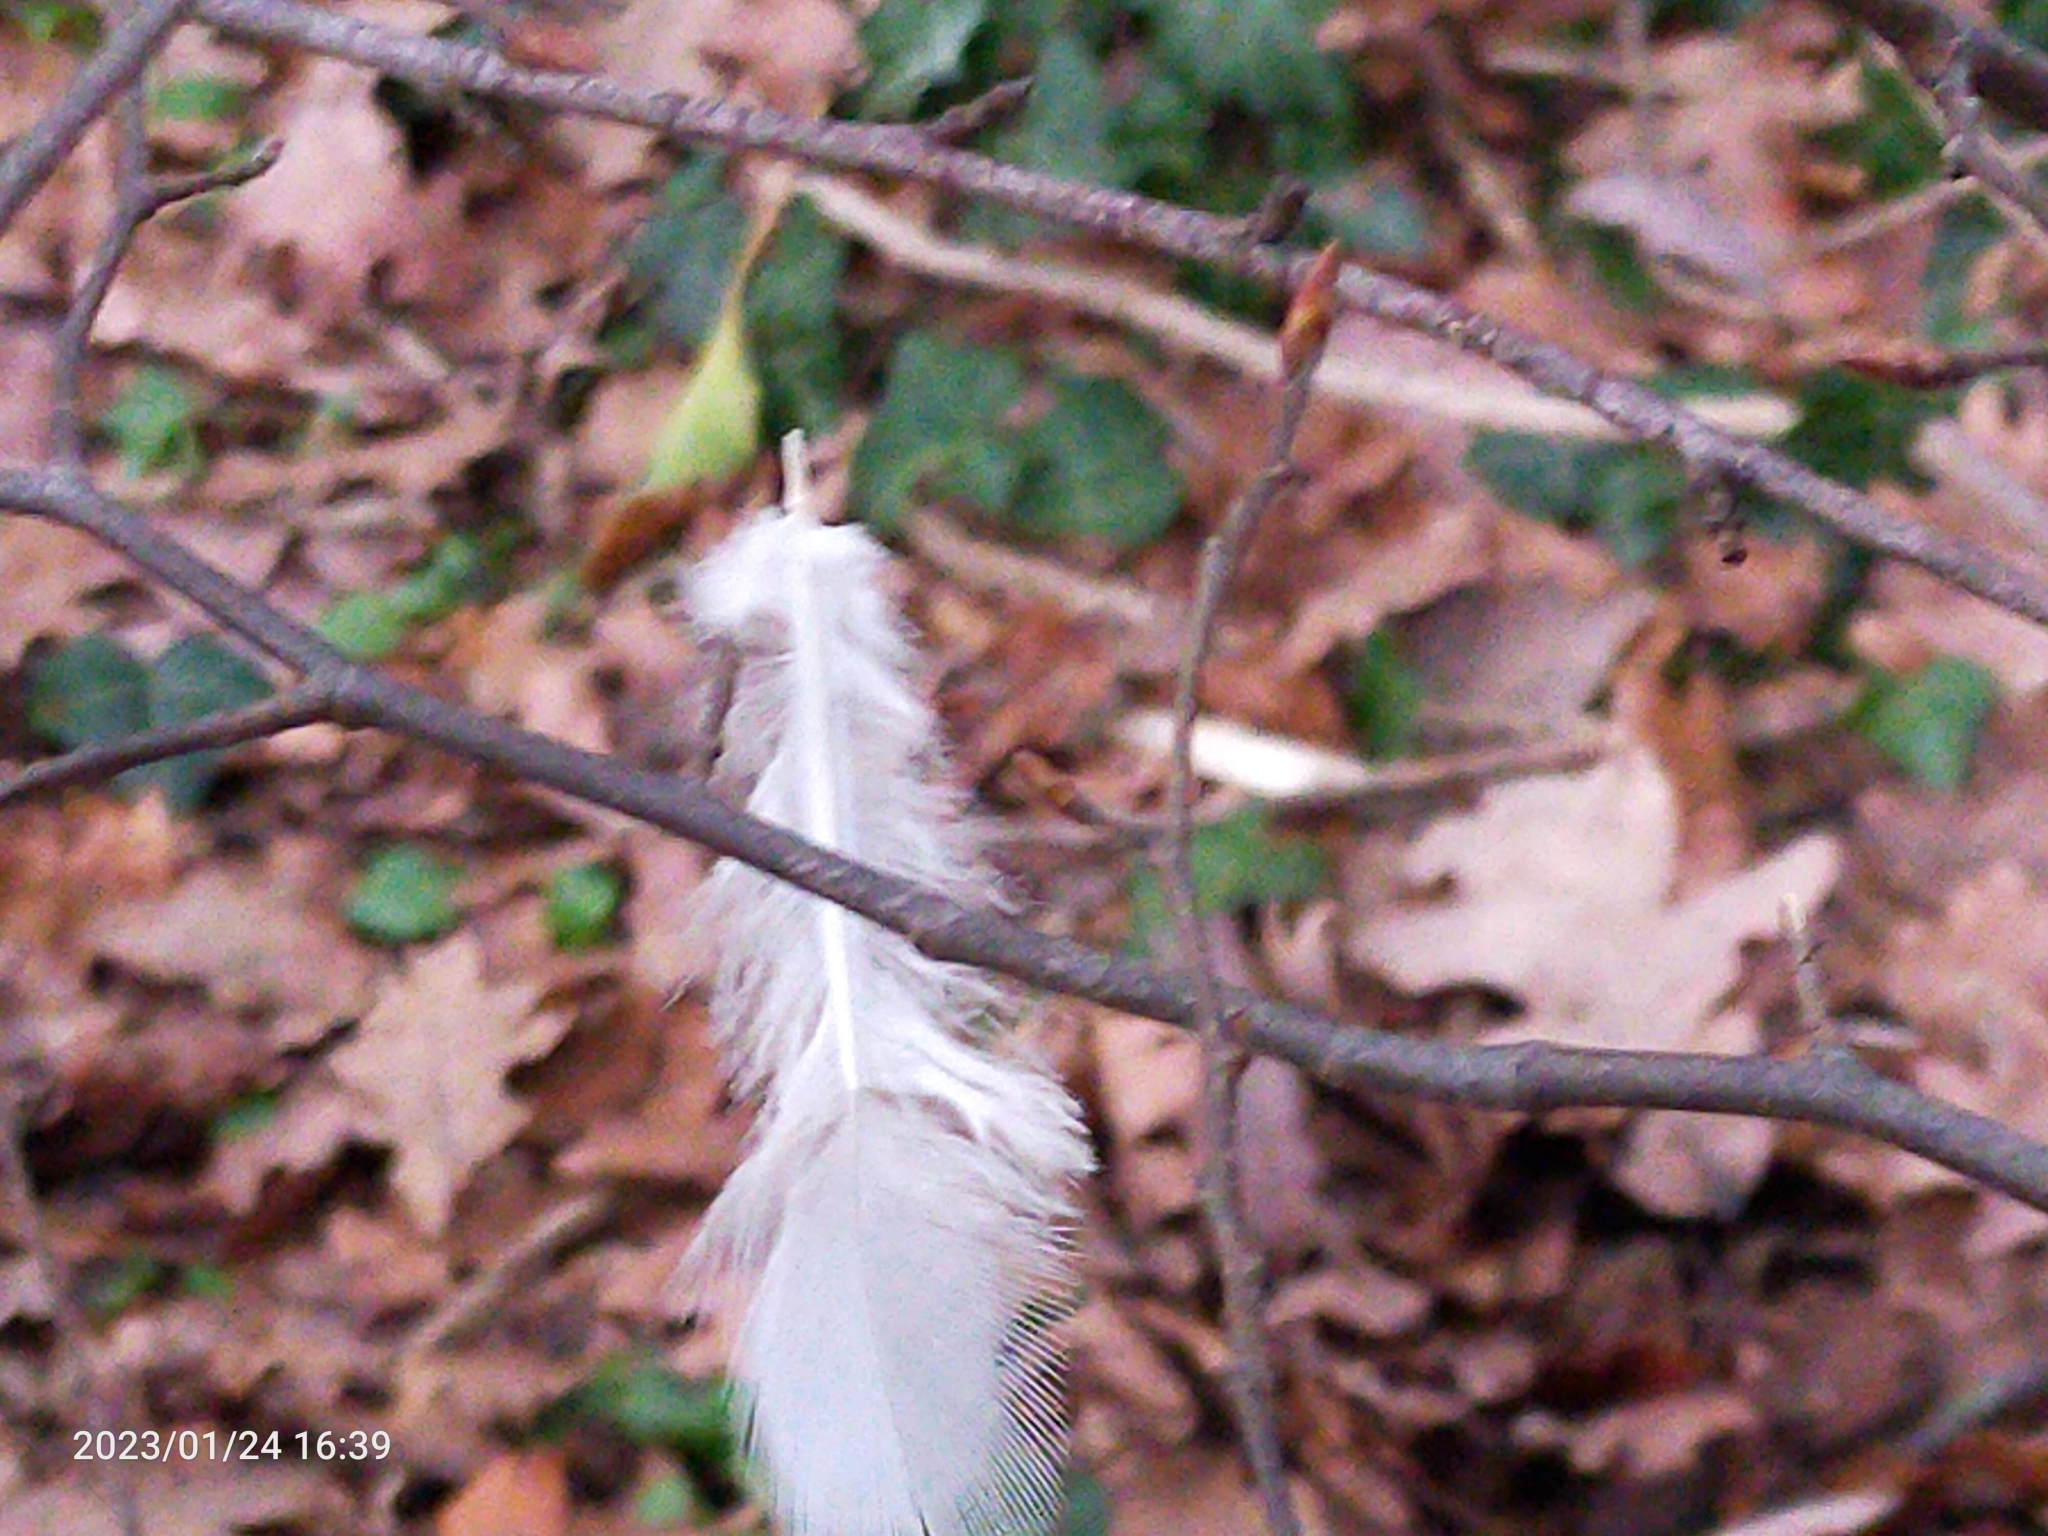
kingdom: Animalia
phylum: Chordata
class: Aves
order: Columbiformes
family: Columbidae
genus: Columba
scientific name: Columba palumbus
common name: Common wood pigeon
